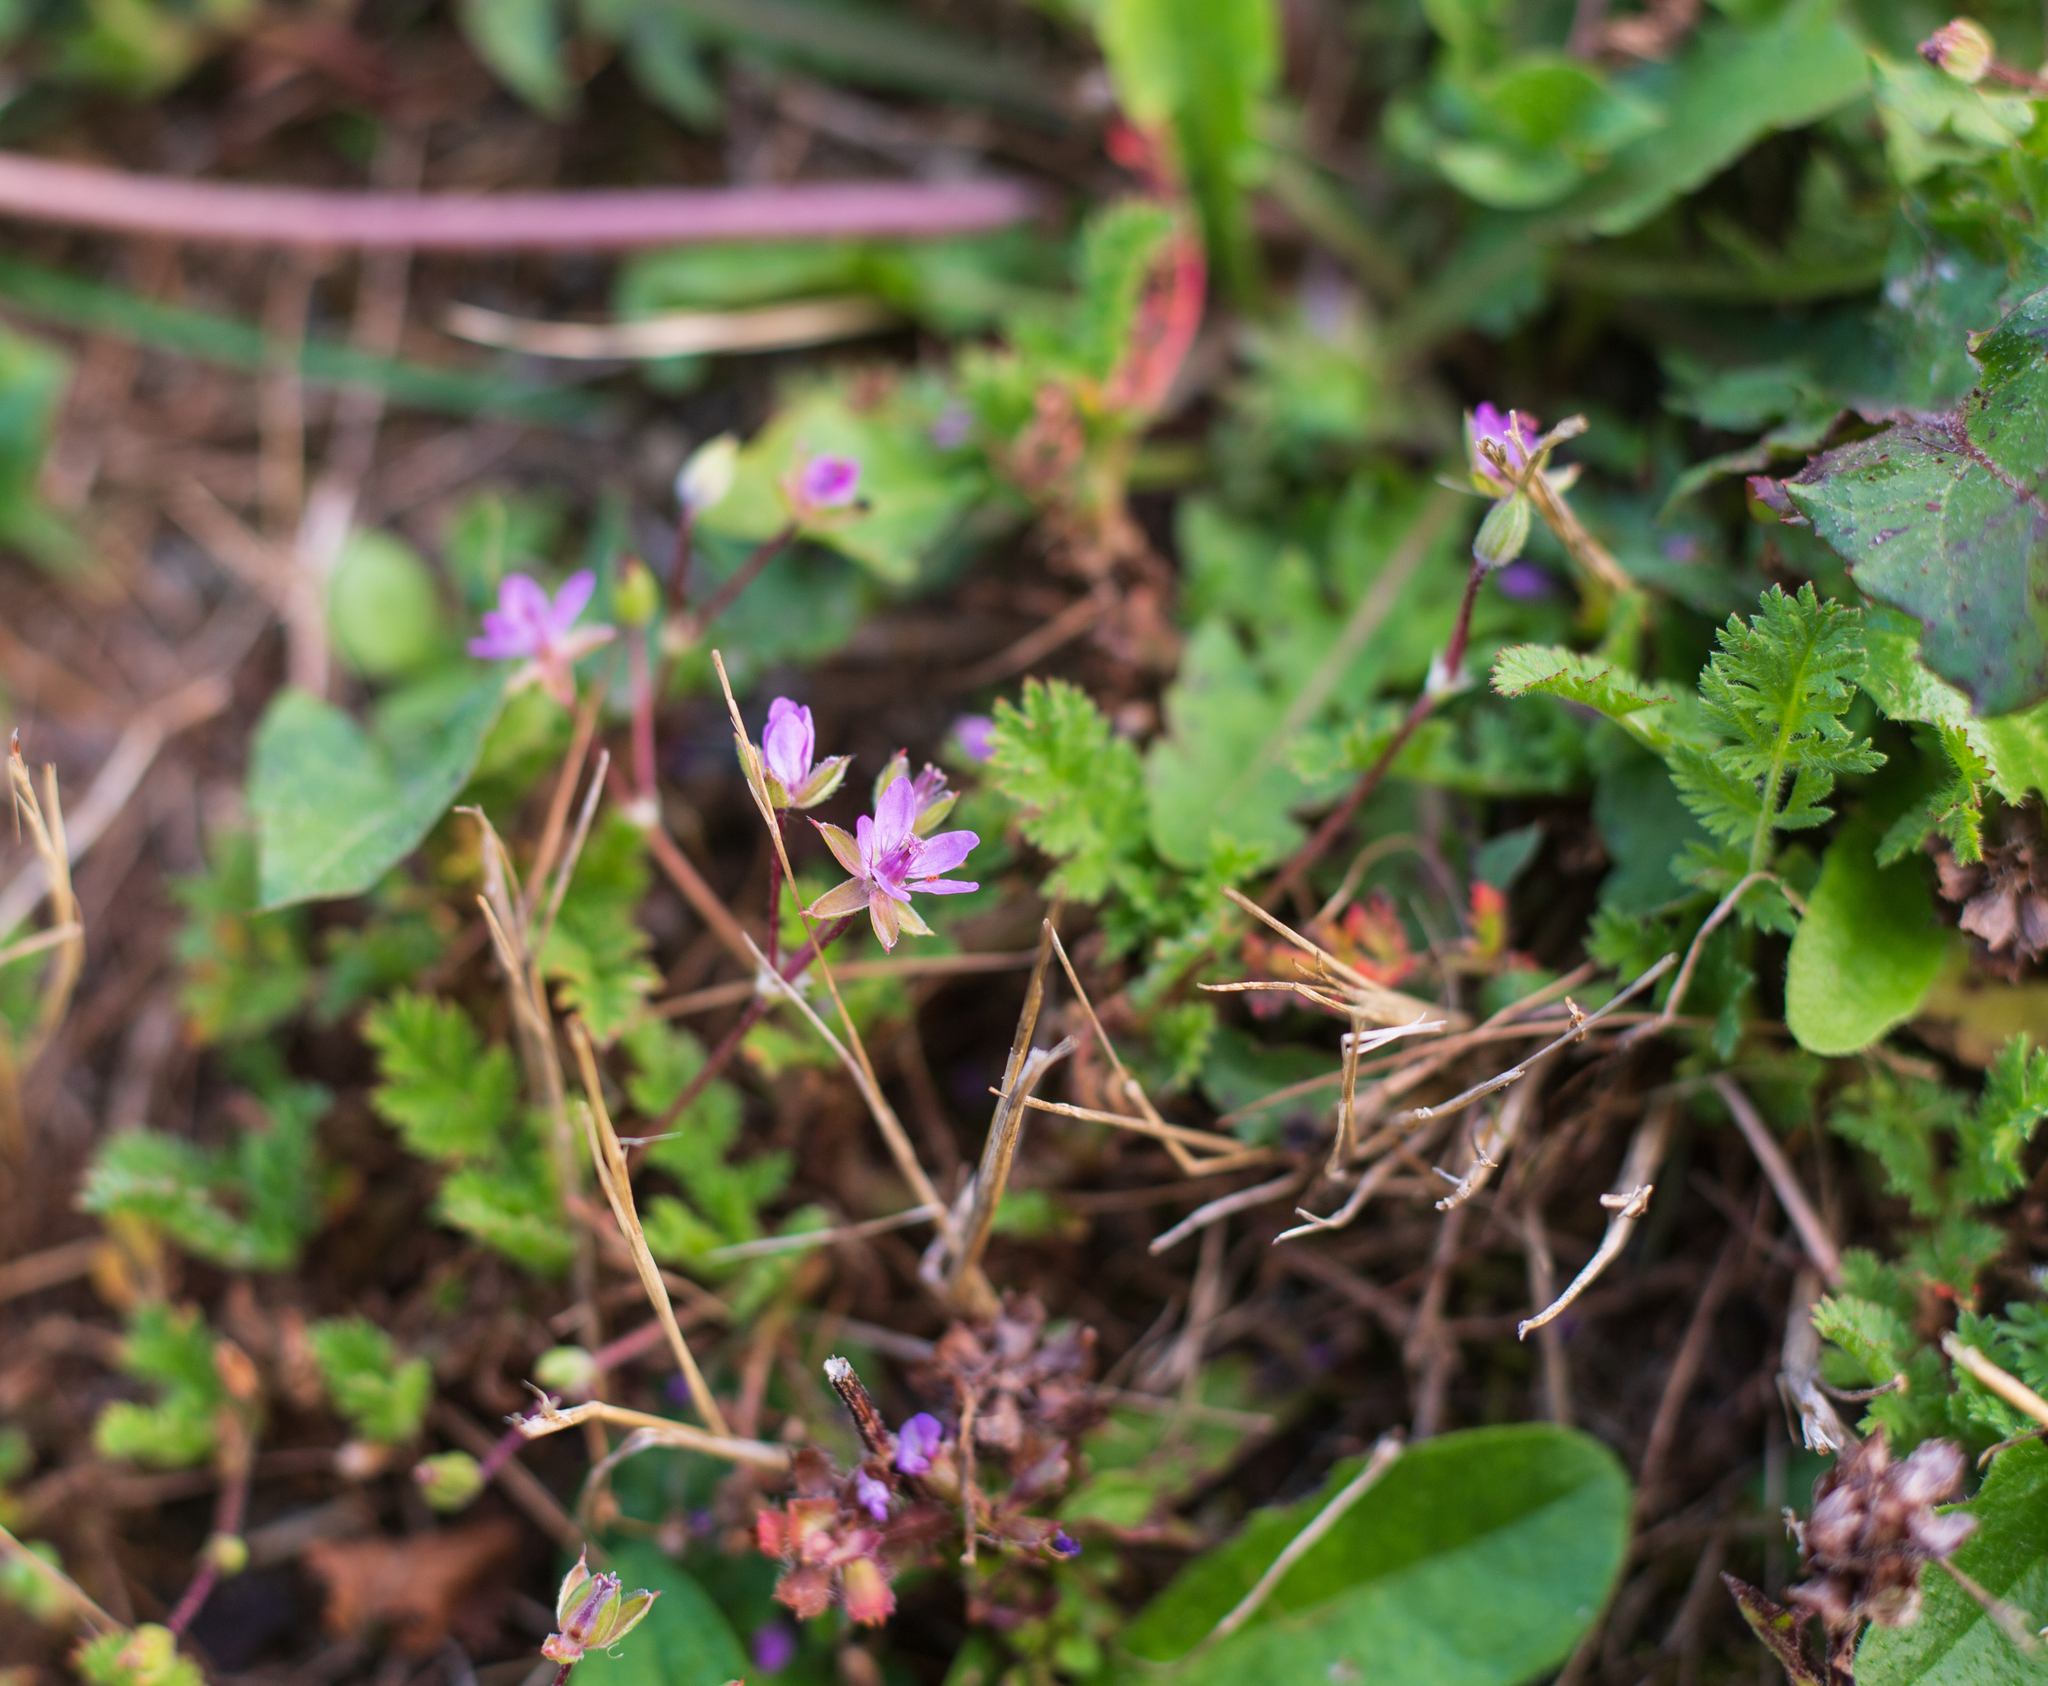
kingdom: Plantae
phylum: Tracheophyta
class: Magnoliopsida
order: Geraniales
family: Geraniaceae
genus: Erodium
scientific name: Erodium cicutarium
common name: Common stork's-bill
